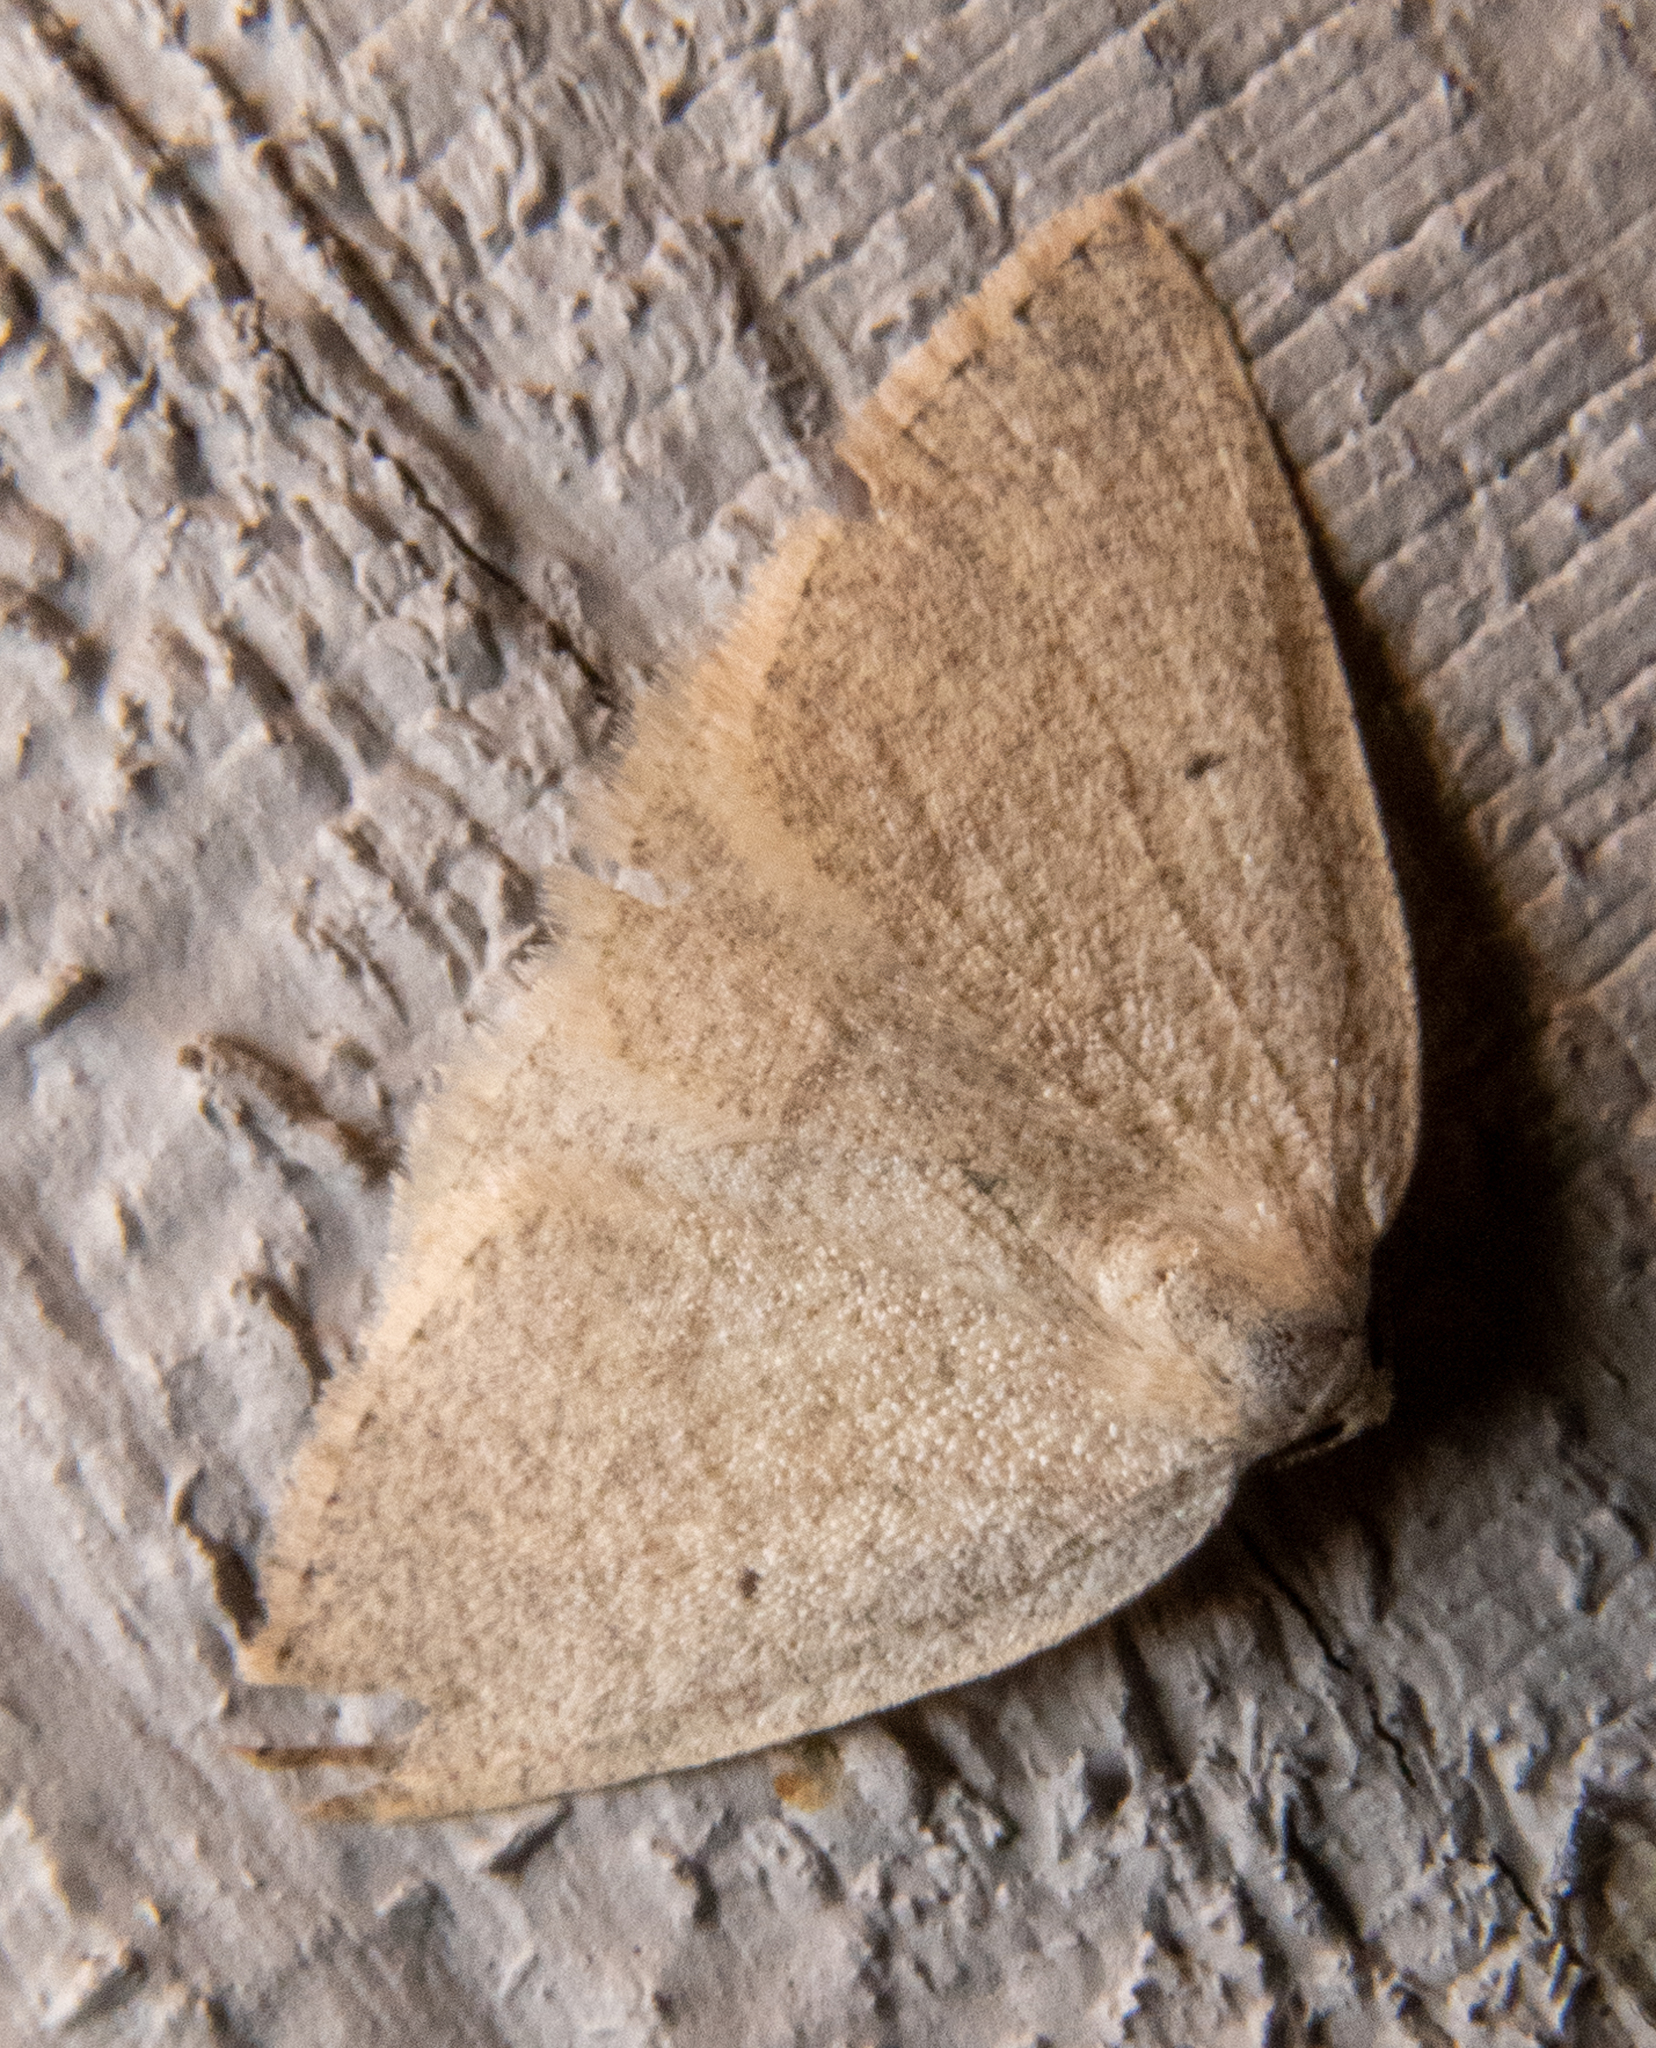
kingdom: Animalia
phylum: Arthropoda
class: Insecta
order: Lepidoptera
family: Geometridae
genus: Eudrepanulatrix
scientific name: Eudrepanulatrix rectifascia
